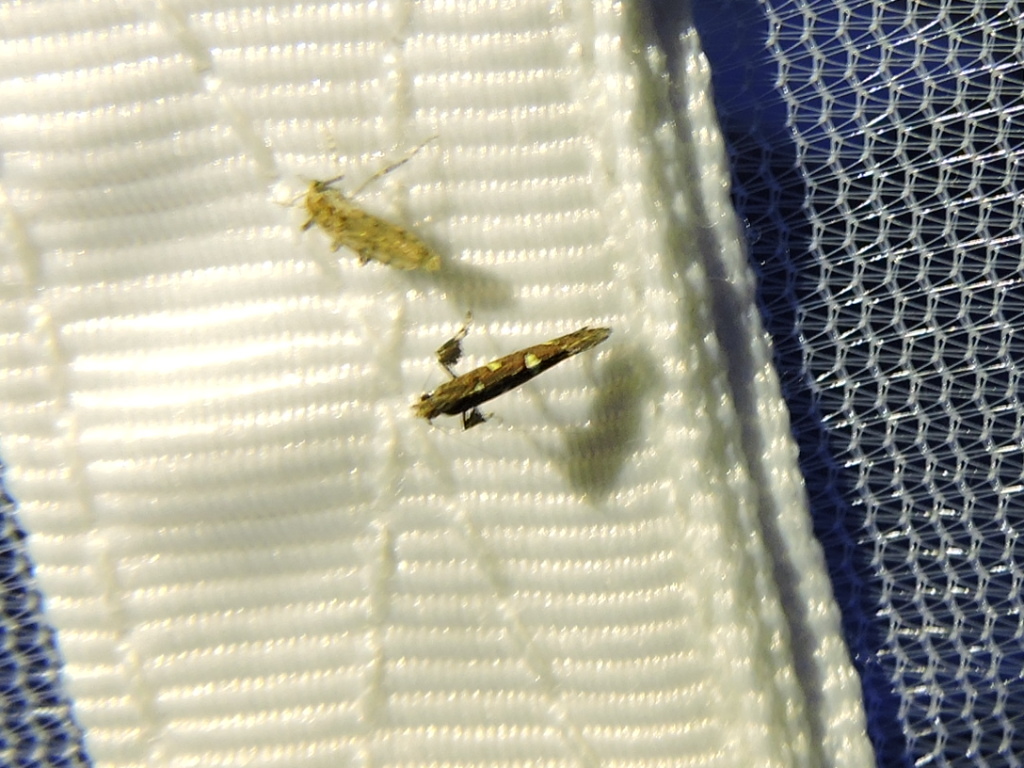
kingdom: Animalia
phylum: Arthropoda
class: Insecta
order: Lepidoptera
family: Gracillariidae
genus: Caloptilia
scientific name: Caloptilia triadicae
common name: Tallow leaf roller
